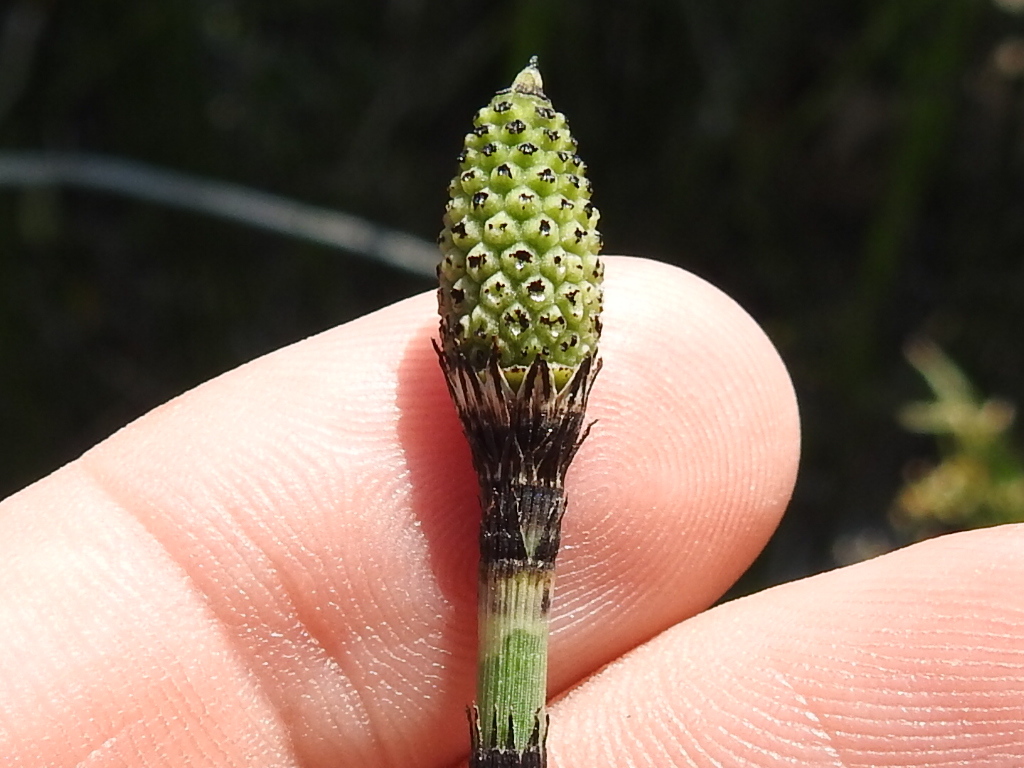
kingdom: Plantae
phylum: Tracheophyta
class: Polypodiopsida
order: Equisetales
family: Equisetaceae
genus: Equisetum
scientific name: Equisetum praealtum
